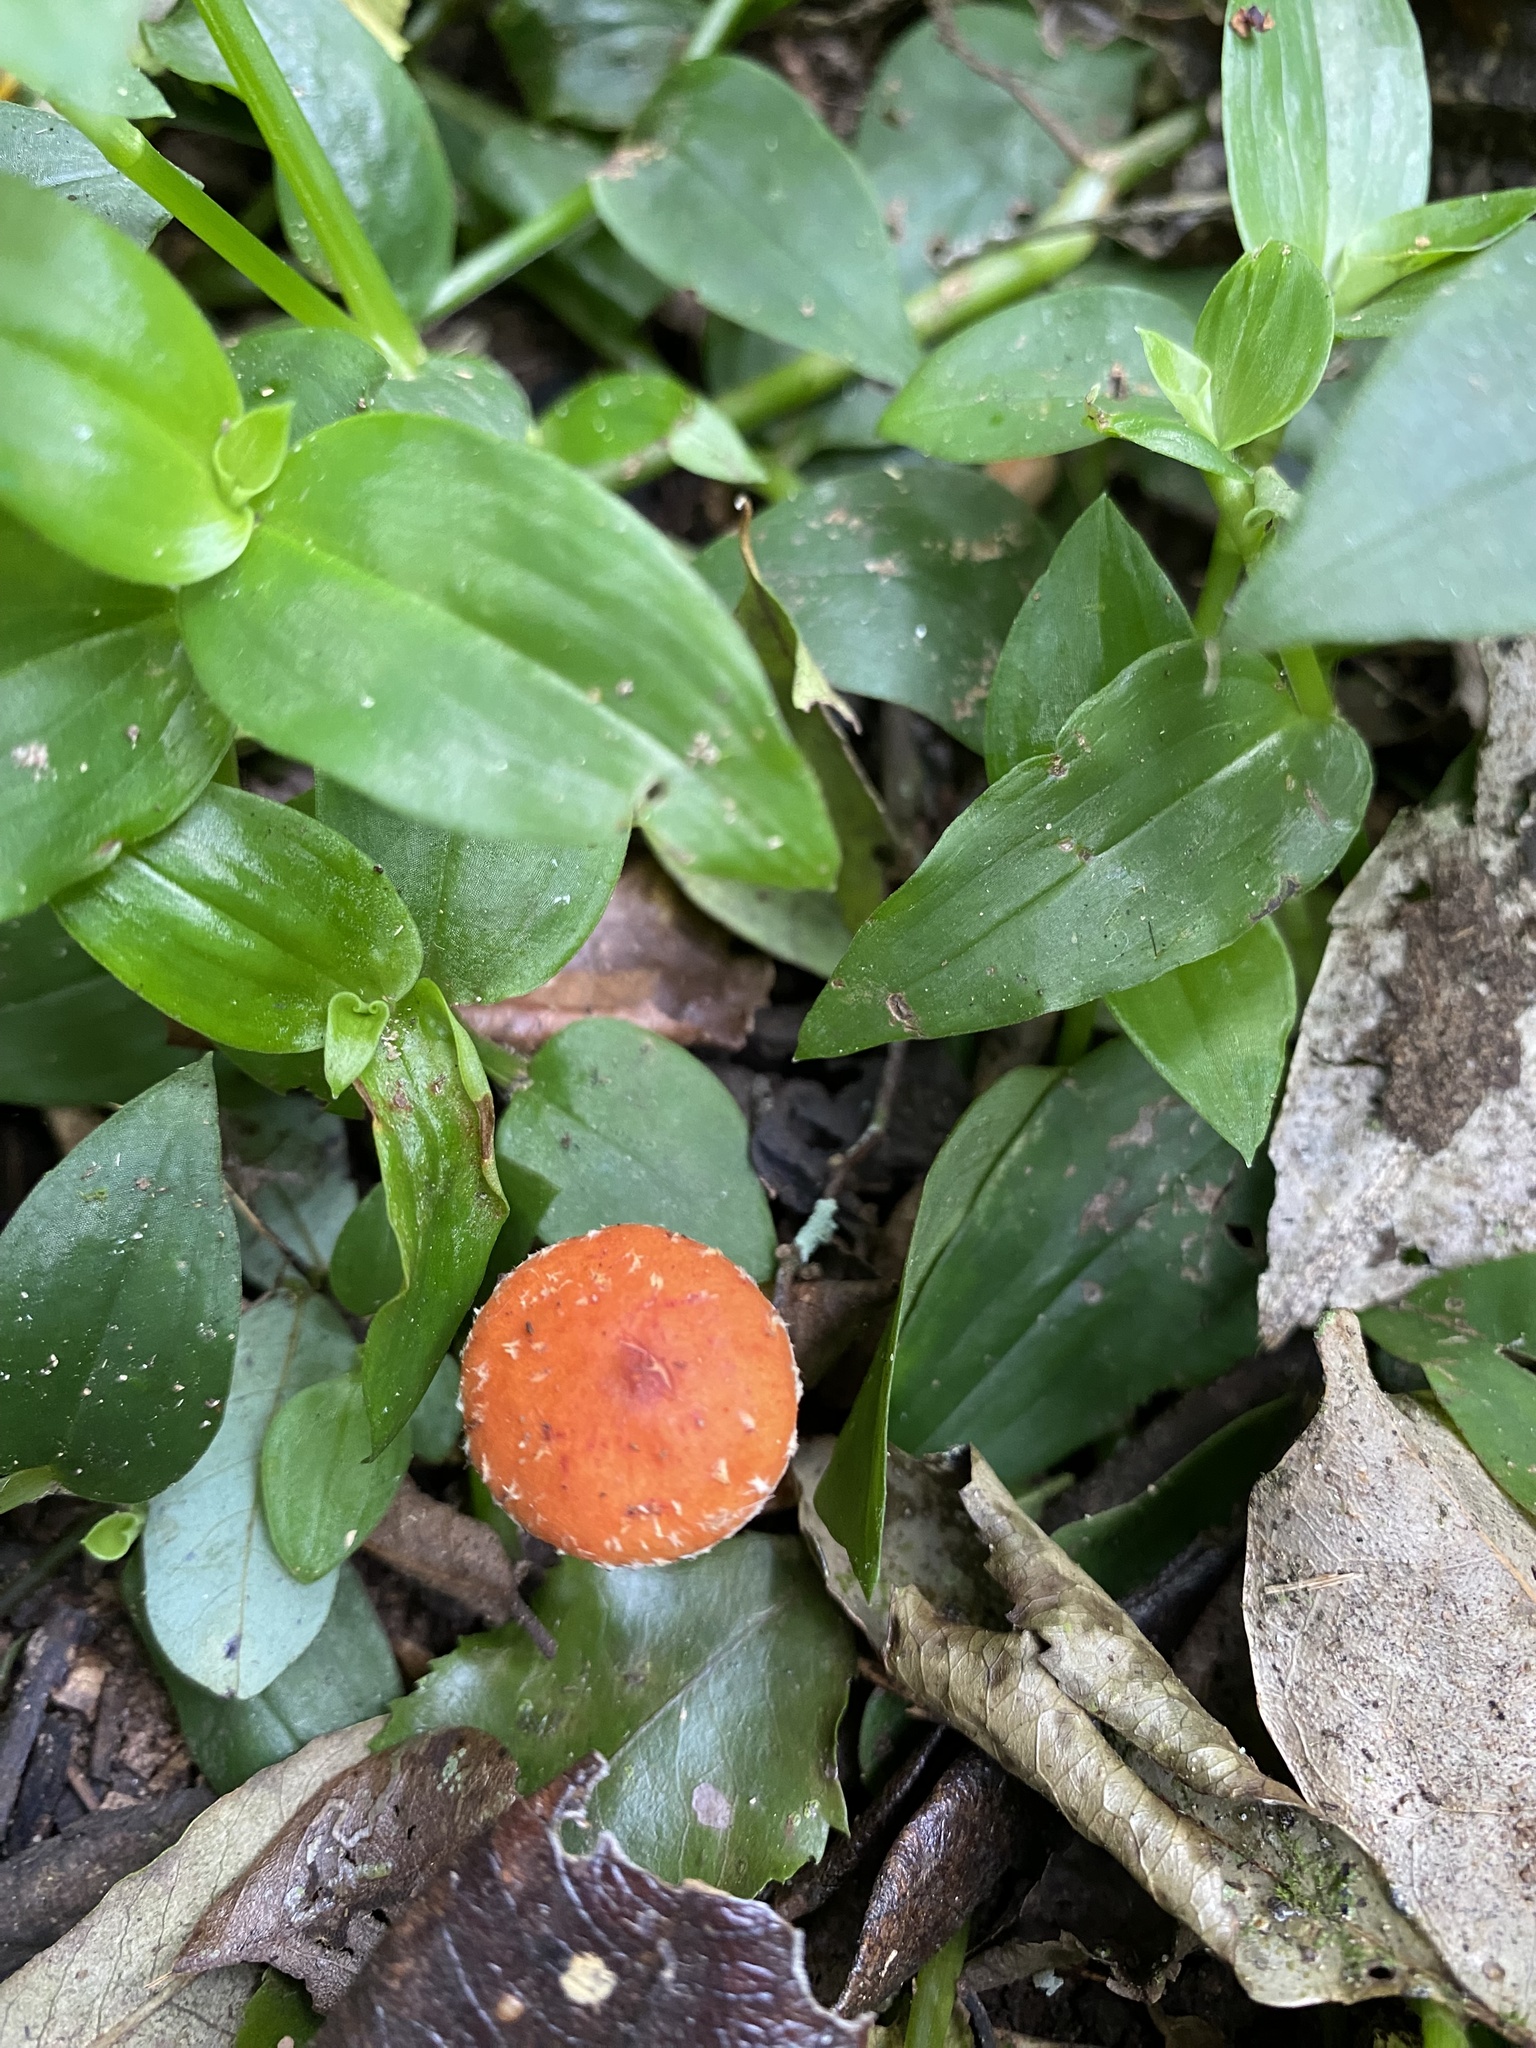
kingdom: Fungi
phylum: Basidiomycota
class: Agaricomycetes
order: Agaricales
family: Strophariaceae
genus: Leratiomyces
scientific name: Leratiomyces ceres
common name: Redlead roundhead
